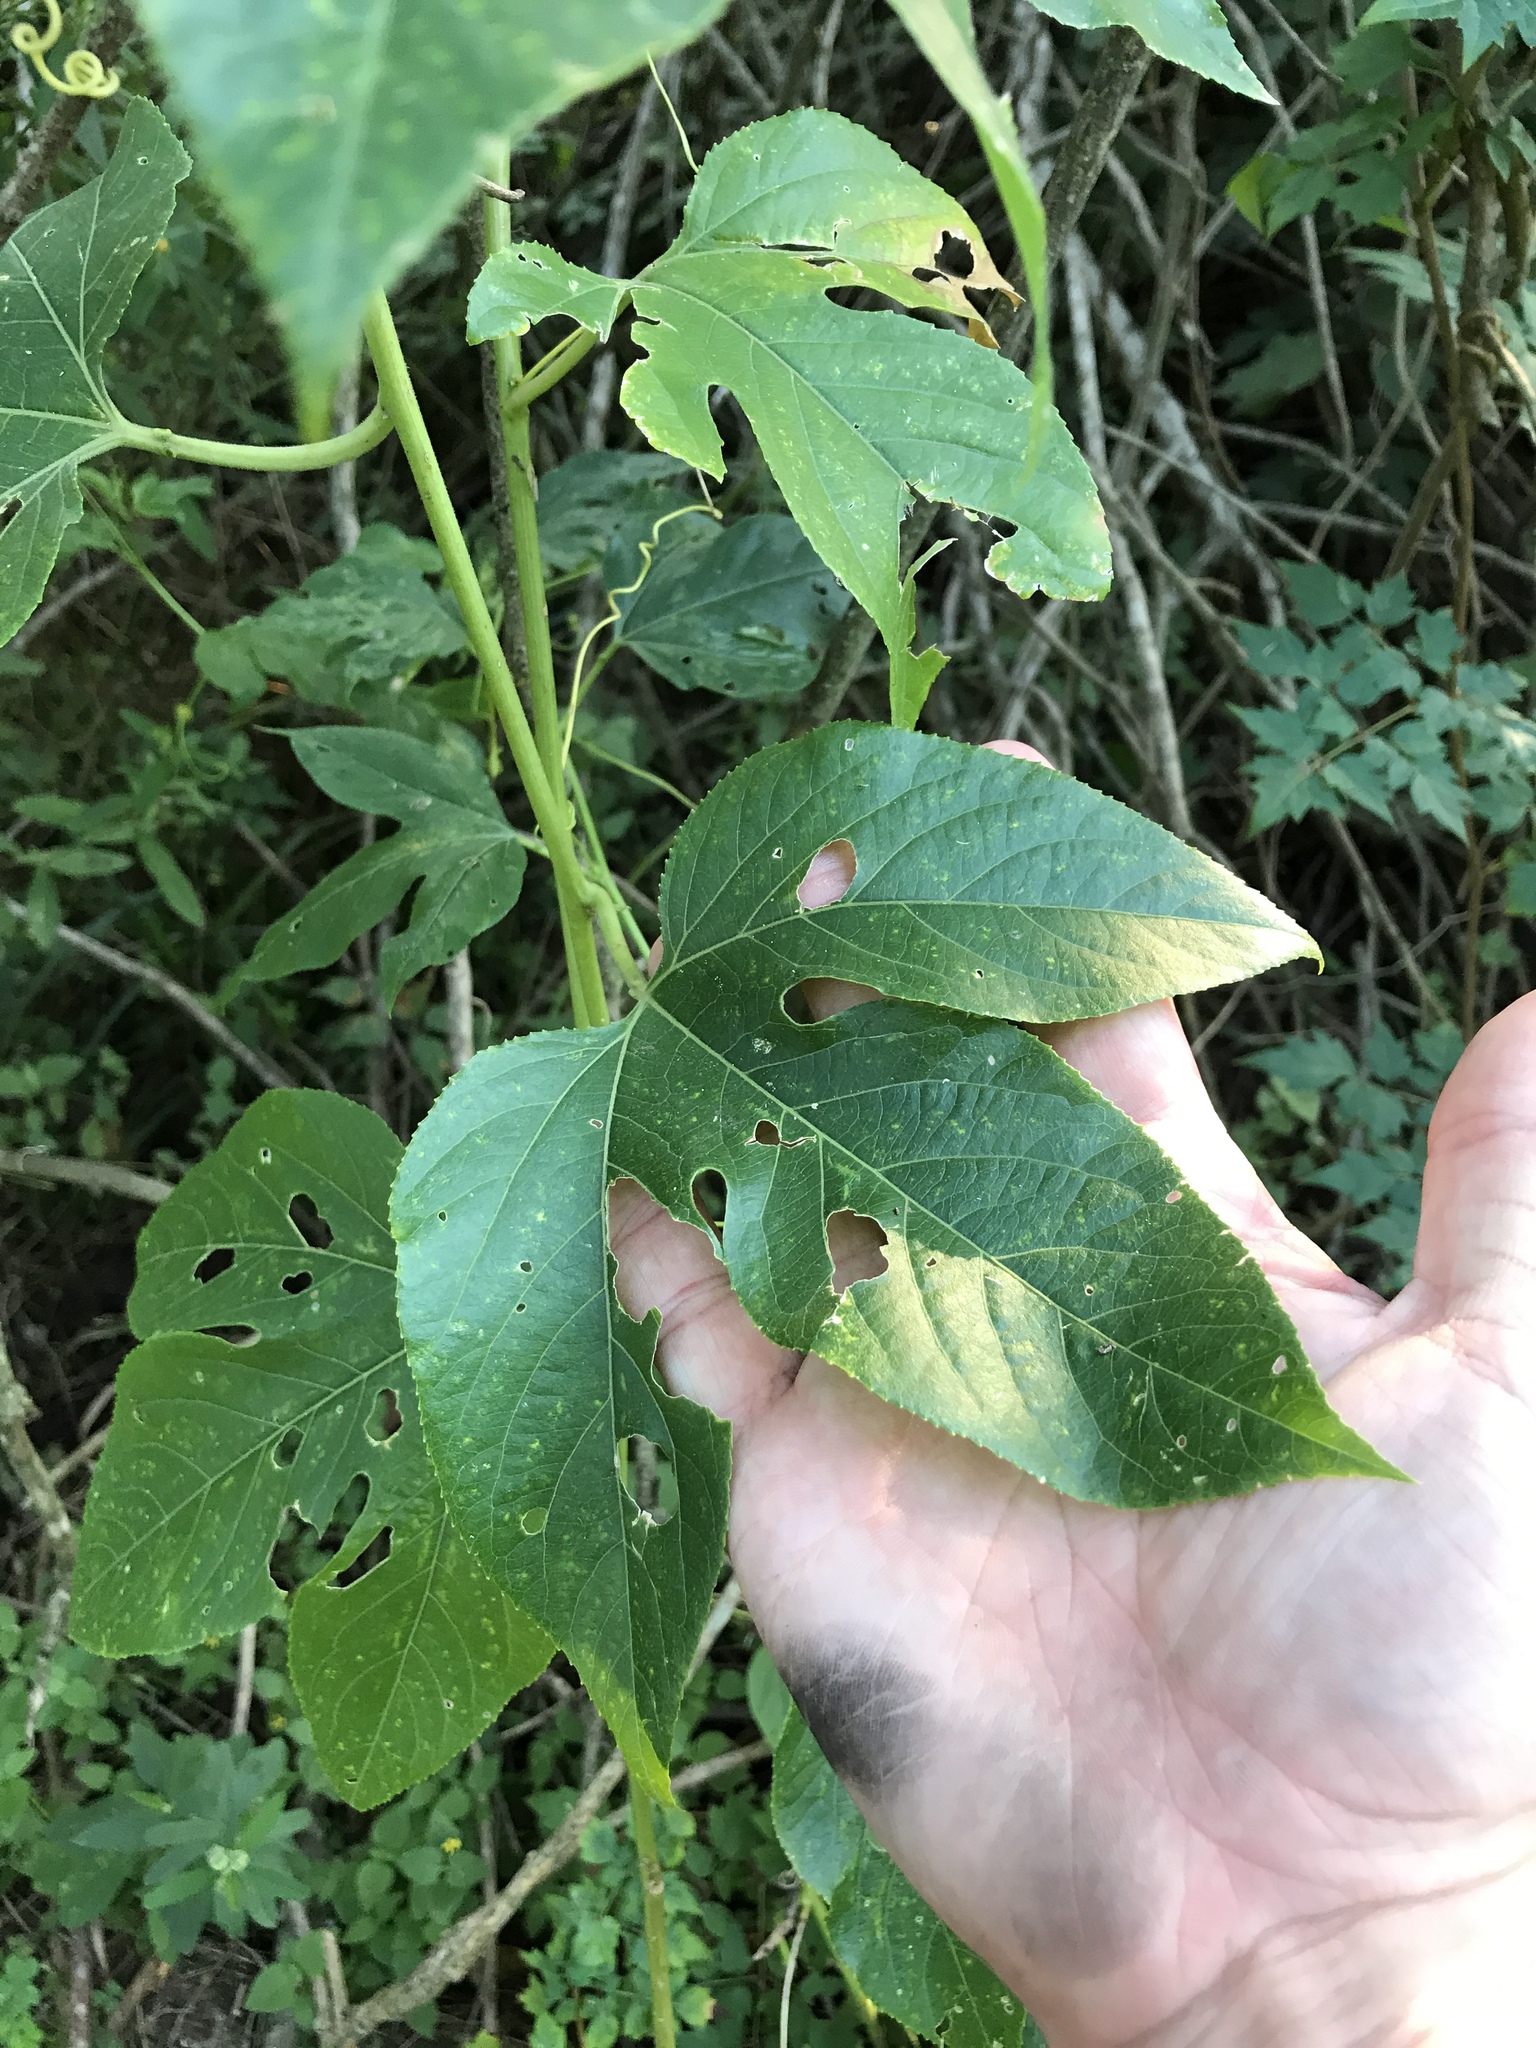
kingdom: Plantae
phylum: Tracheophyta
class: Magnoliopsida
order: Malpighiales
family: Passifloraceae
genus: Passiflora
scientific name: Passiflora incarnata
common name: Apricot-vine
